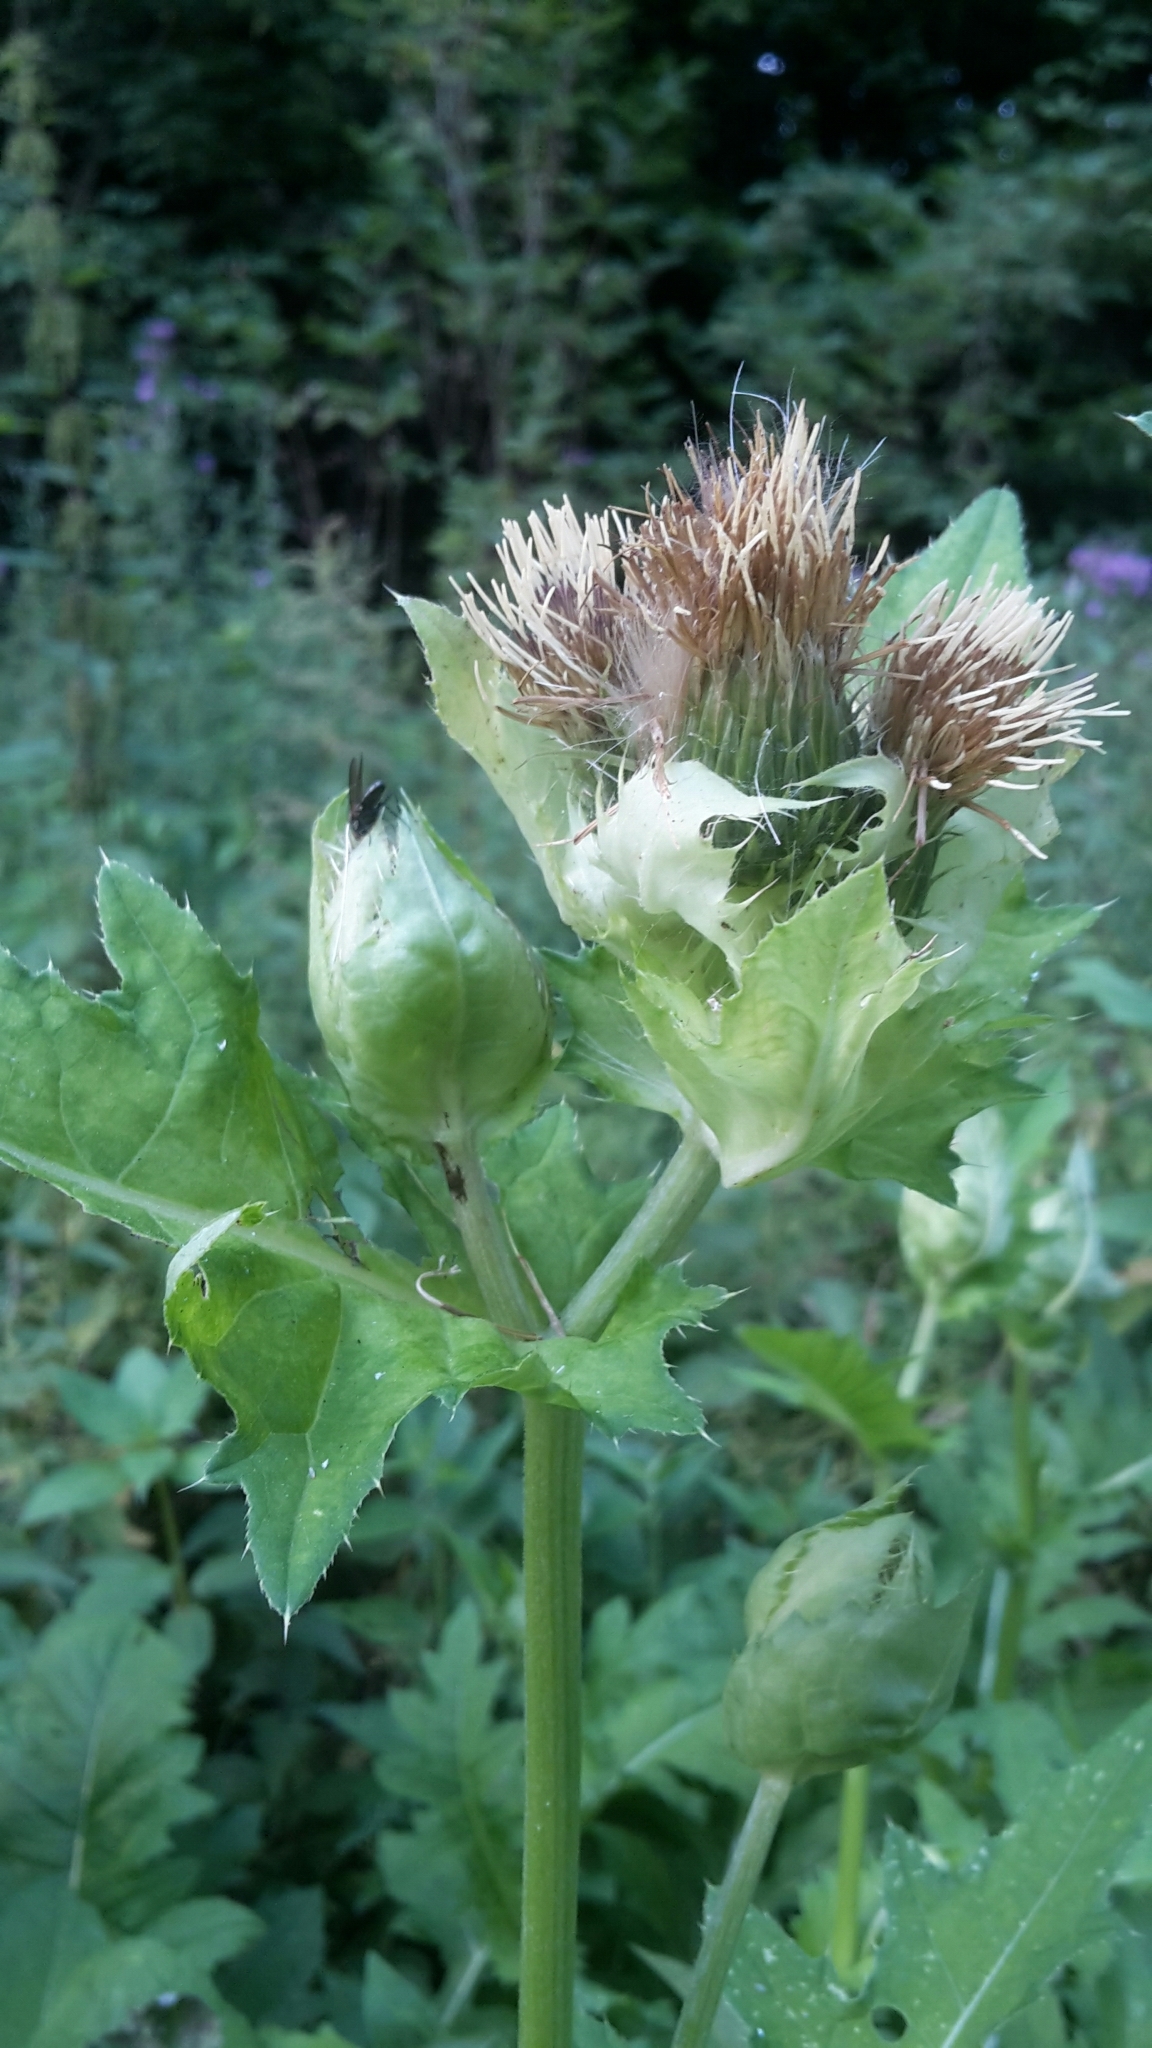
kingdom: Plantae
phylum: Tracheophyta
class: Magnoliopsida
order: Asterales
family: Asteraceae
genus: Cirsium
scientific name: Cirsium oleraceum
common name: Cabbage thistle
